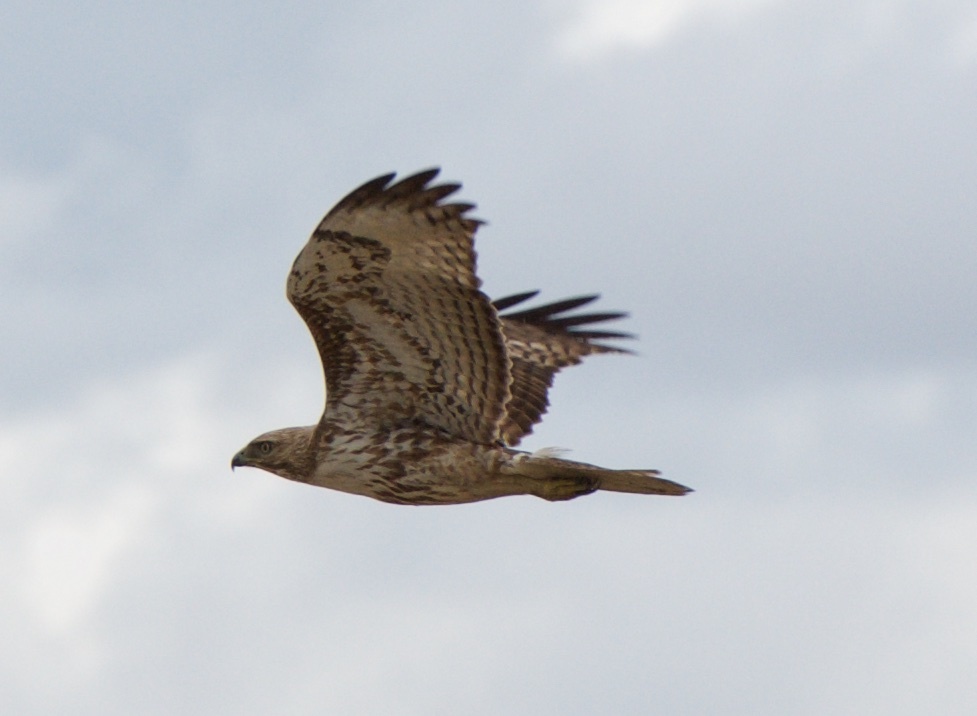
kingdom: Animalia
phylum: Chordata
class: Aves
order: Accipitriformes
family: Accipitridae
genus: Buteo
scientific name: Buteo jamaicensis
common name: Red-tailed hawk
